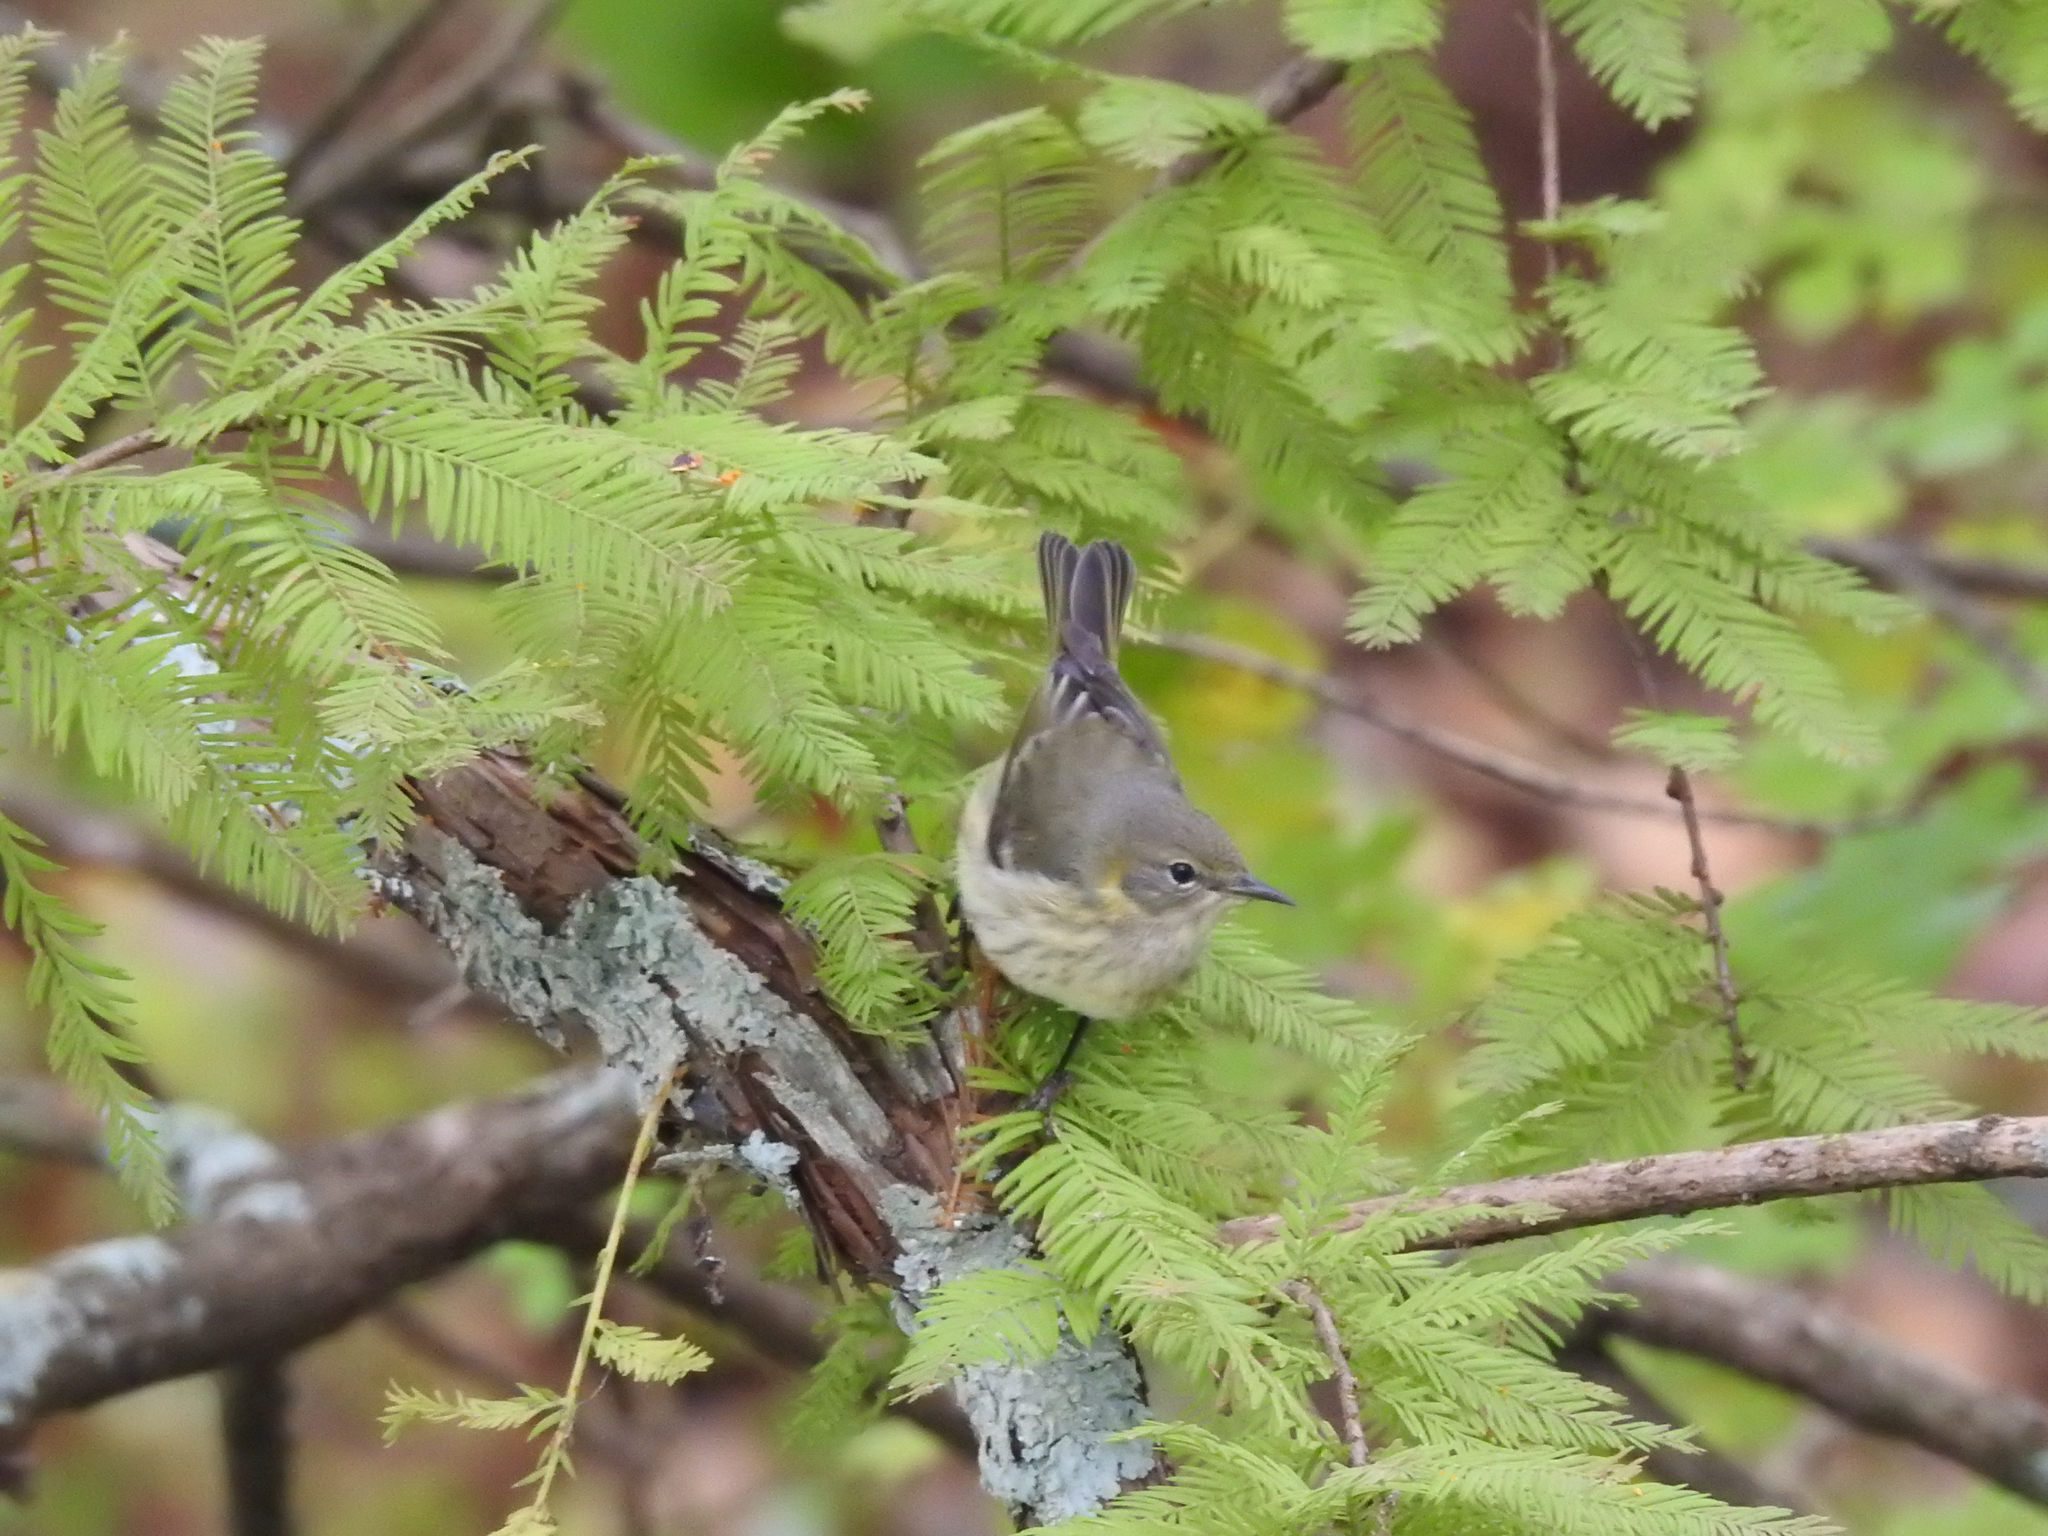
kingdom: Animalia
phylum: Chordata
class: Aves
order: Passeriformes
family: Parulidae
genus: Setophaga
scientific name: Setophaga tigrina
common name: Cape may warbler
